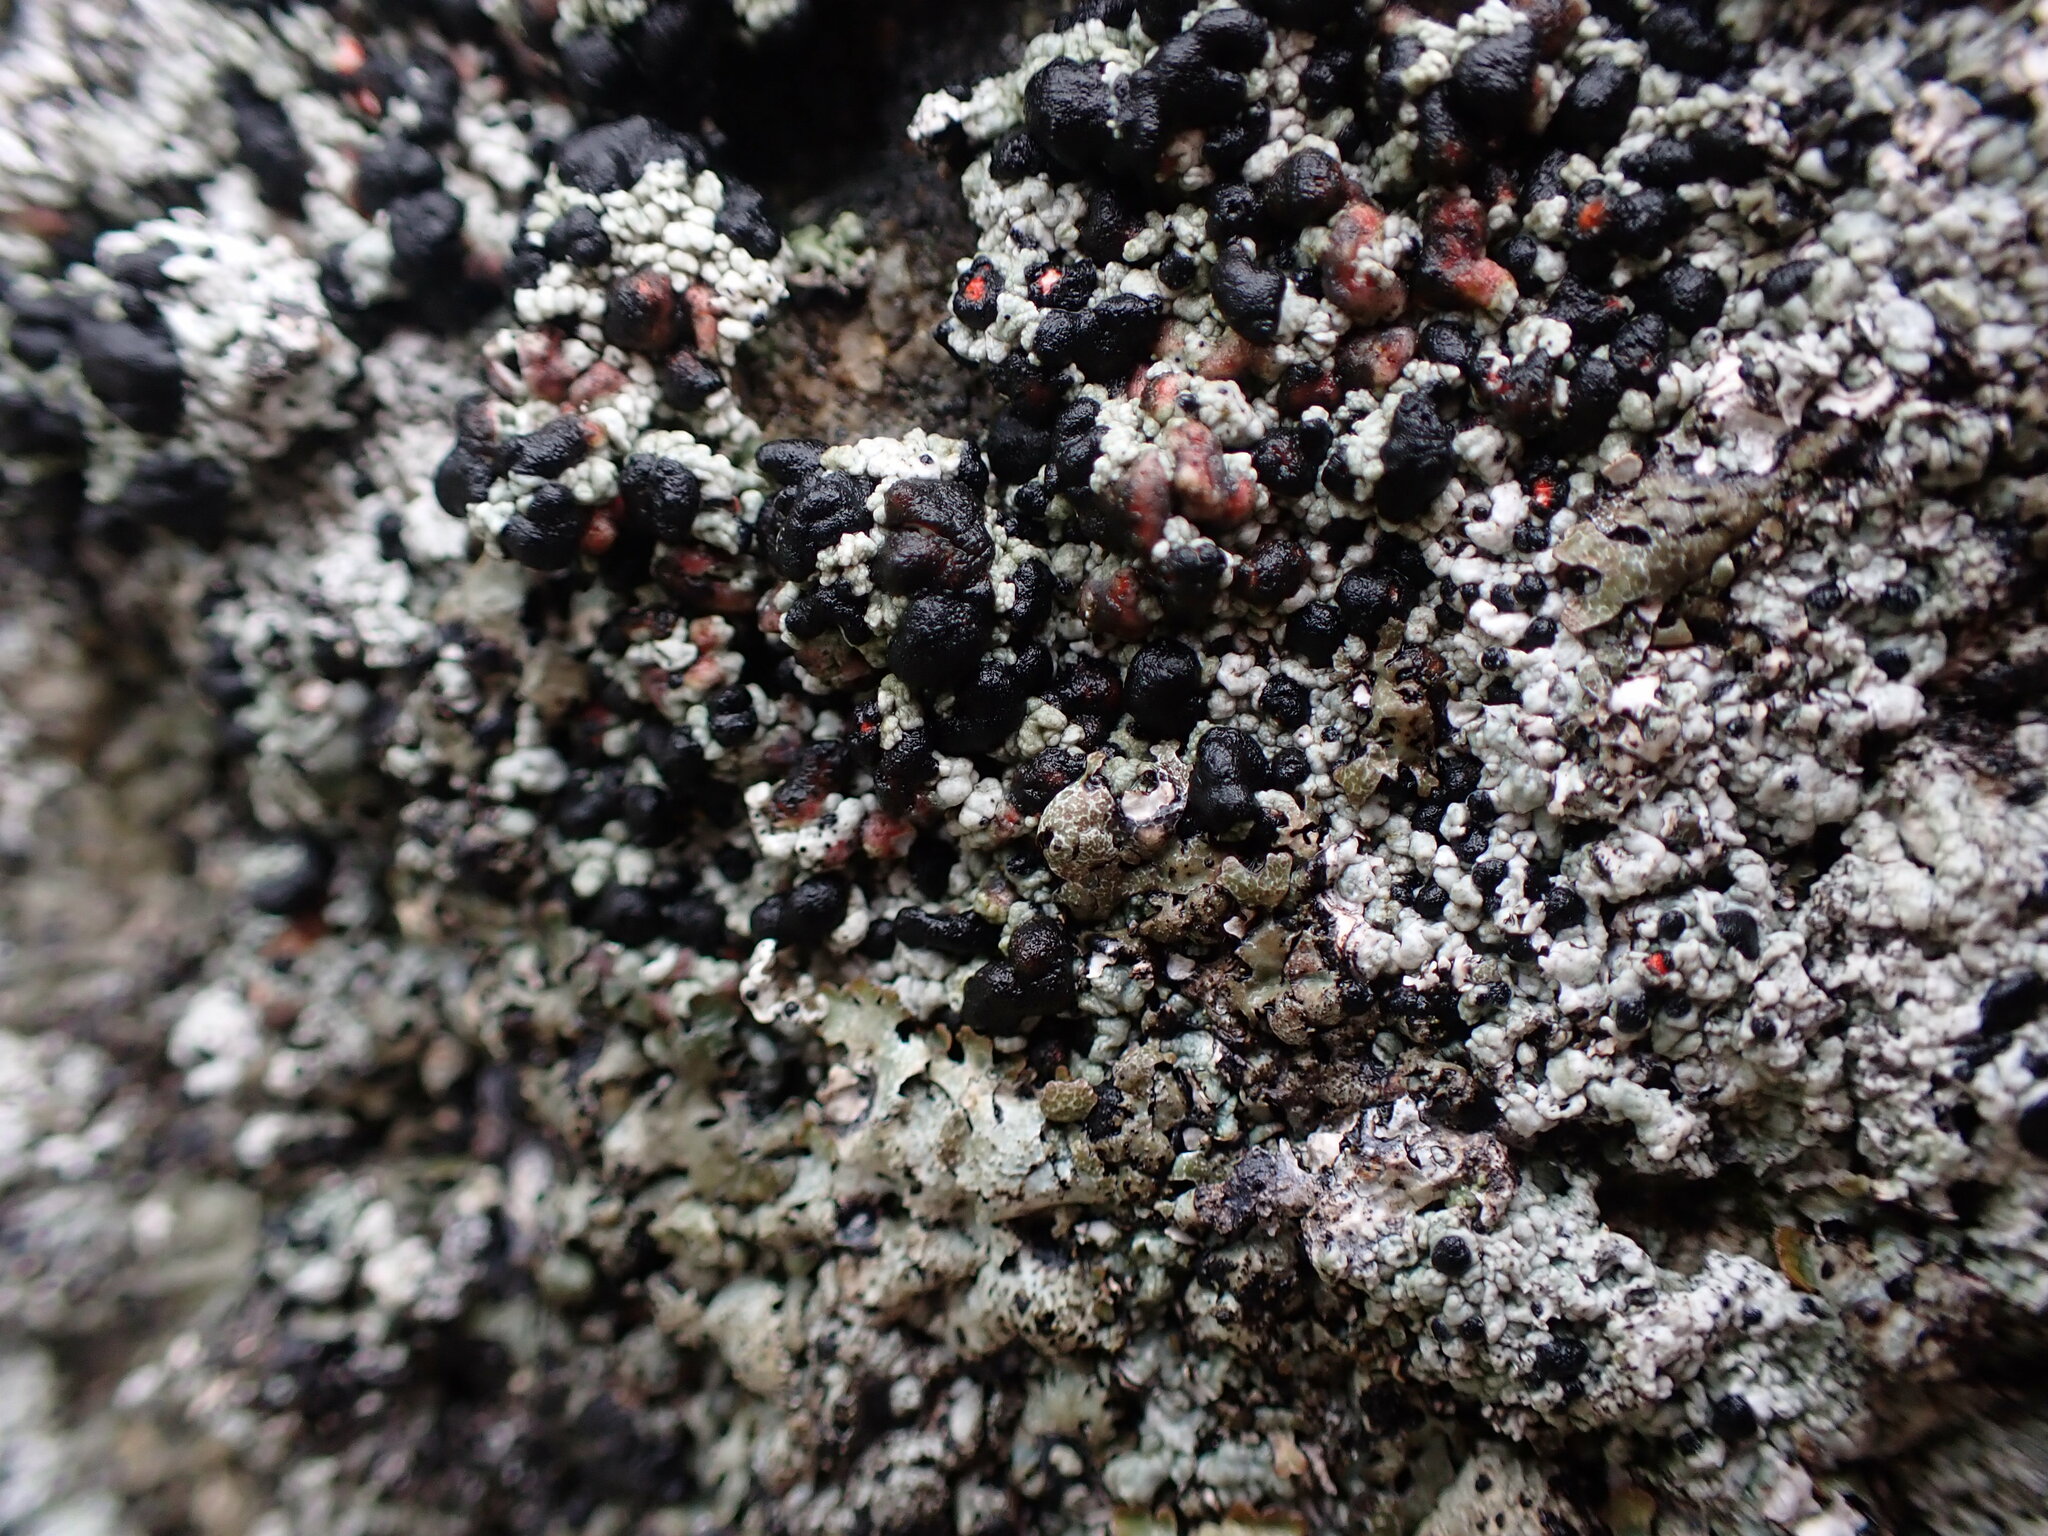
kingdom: Fungi
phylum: Ascomycota
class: Lecanoromycetes
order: Lecanorales
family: Tephromelataceae
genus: Mycoblastus
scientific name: Mycoblastus sanguinarius
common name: Bloody-heart lichen
